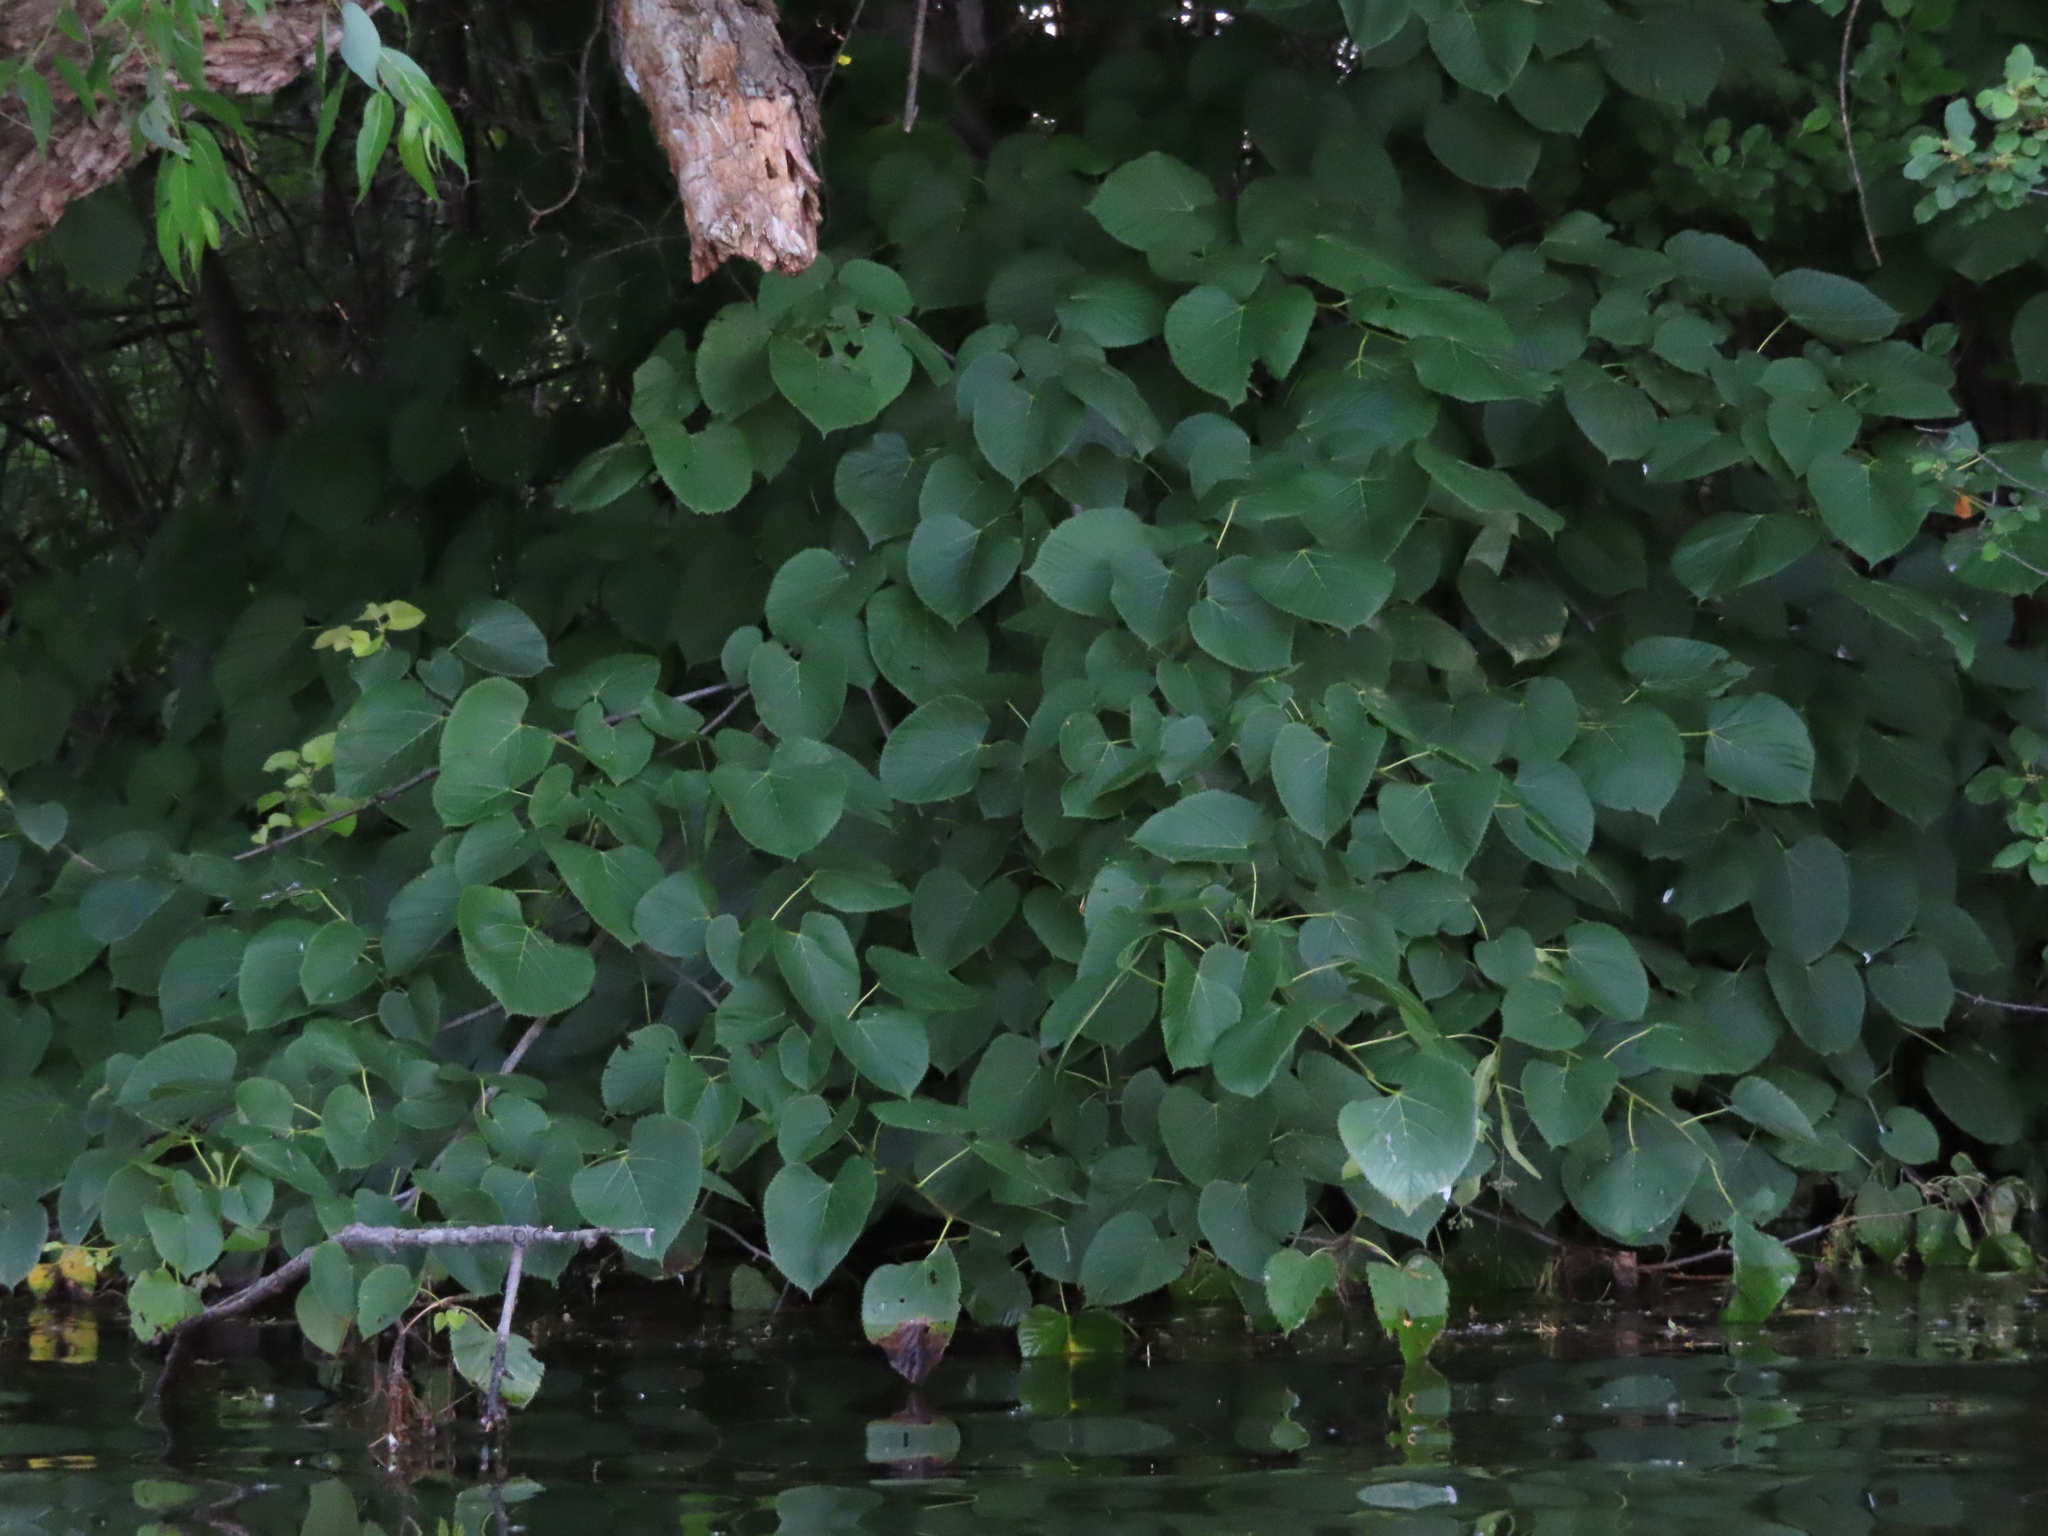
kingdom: Plantae
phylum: Tracheophyta
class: Magnoliopsida
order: Malvales
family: Malvaceae
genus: Tilia
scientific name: Tilia americana
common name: Basswood
